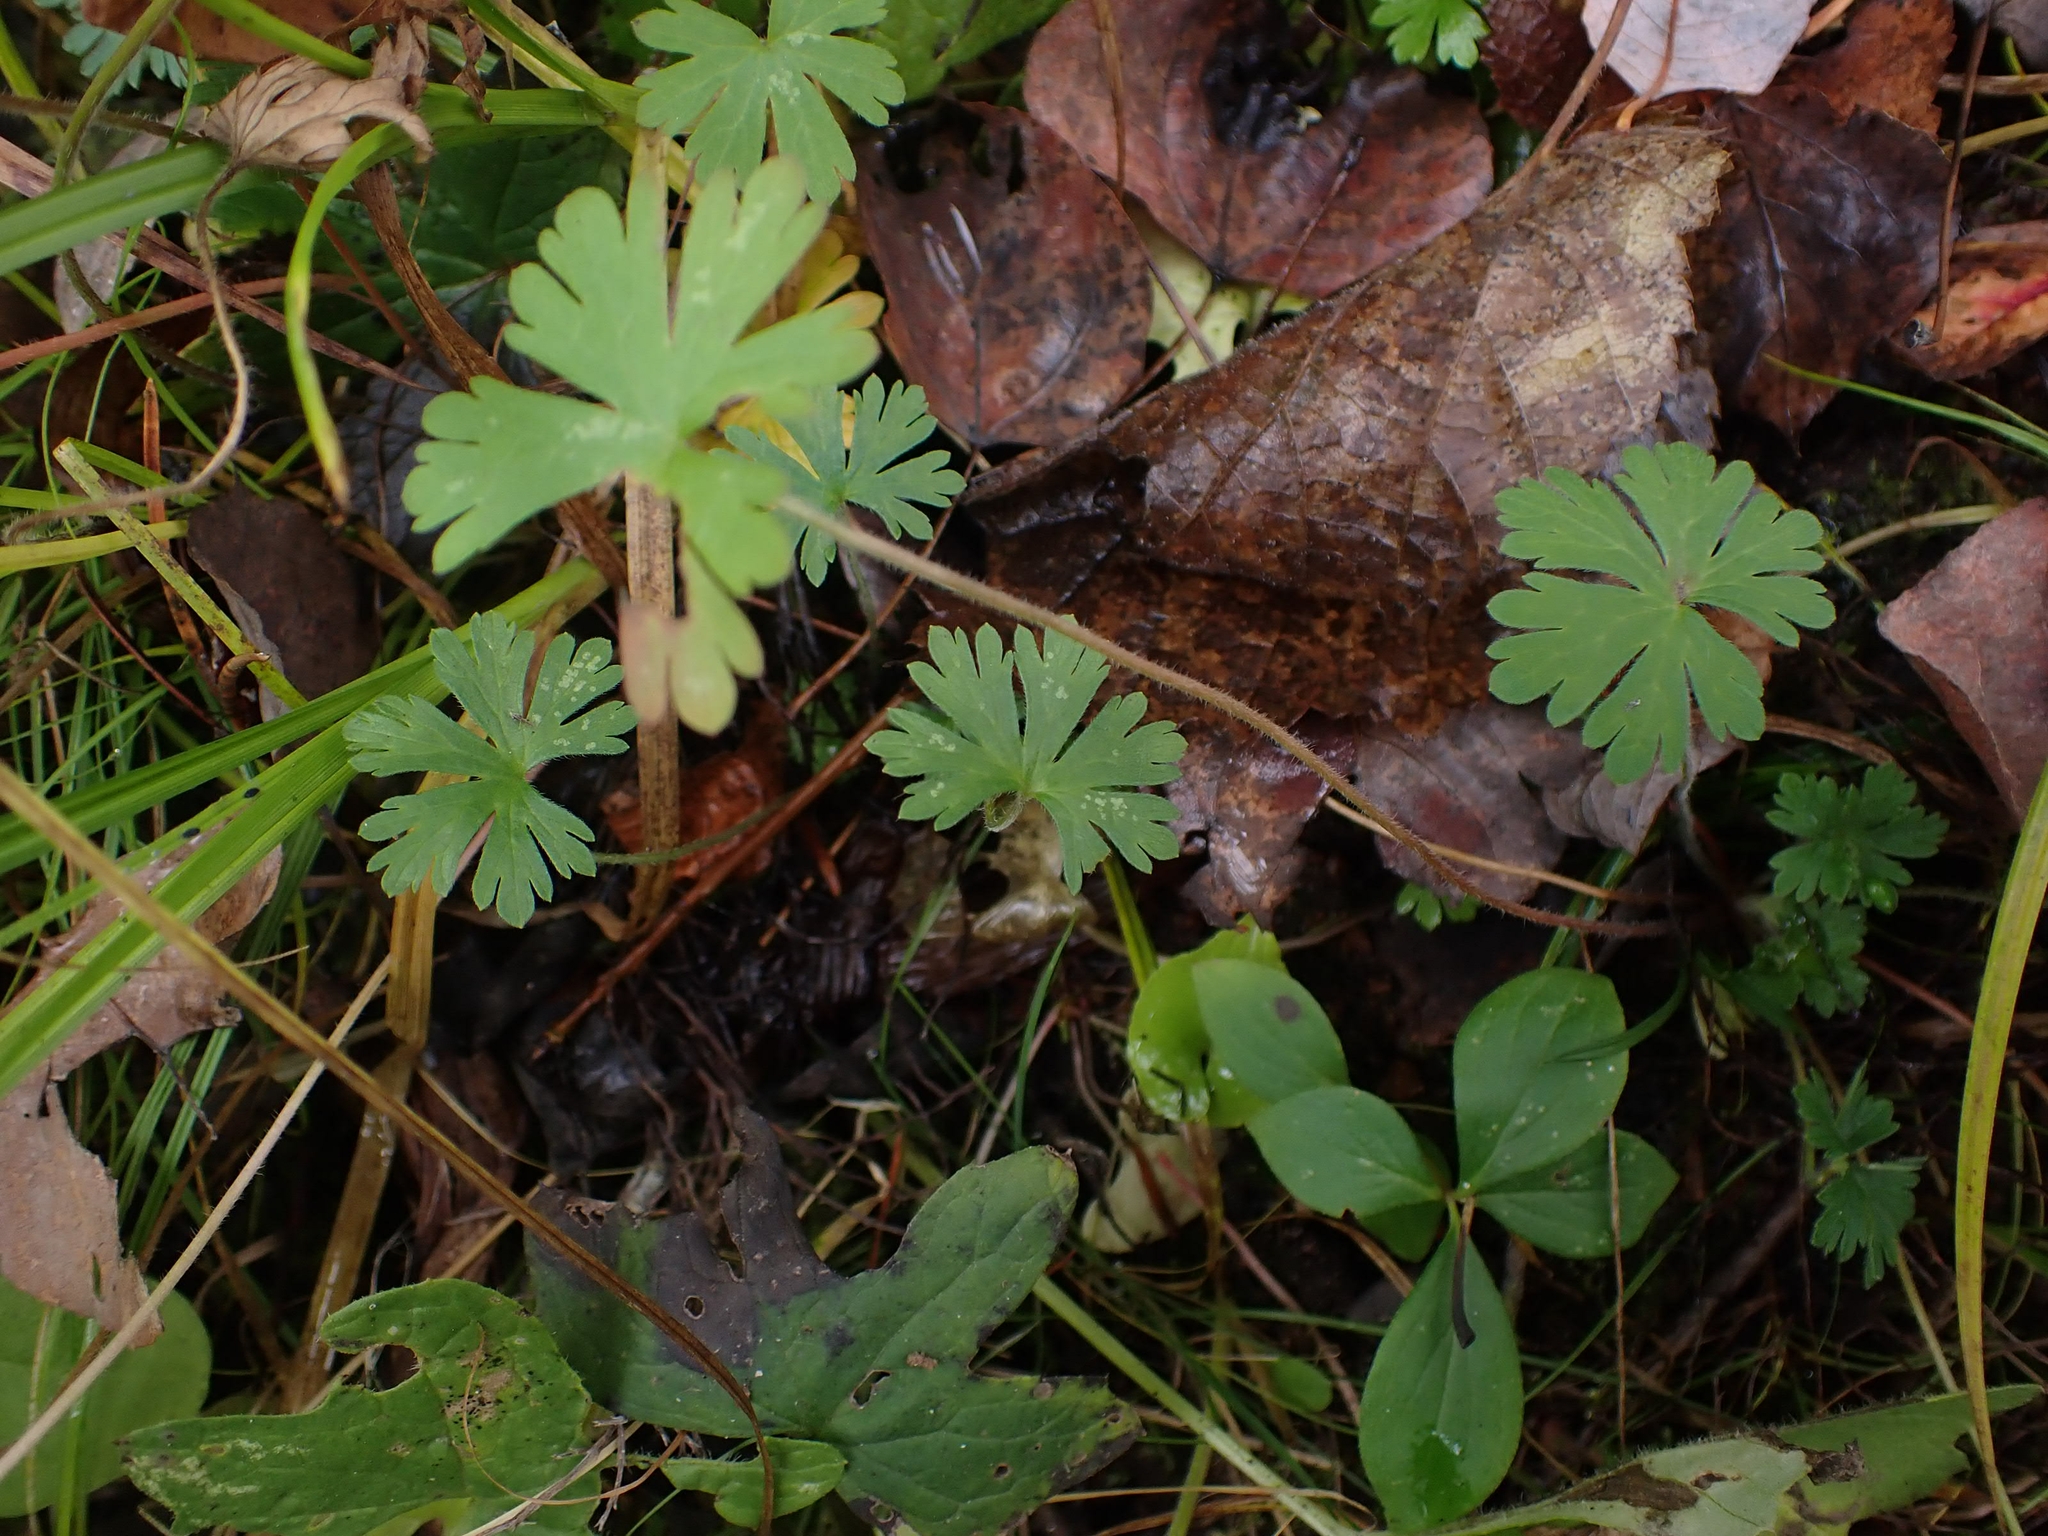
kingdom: Plantae
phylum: Tracheophyta
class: Magnoliopsida
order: Geraniales
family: Geraniaceae
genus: Geranium
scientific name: Geranium bicknellii
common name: Bicknell's cranesbill
